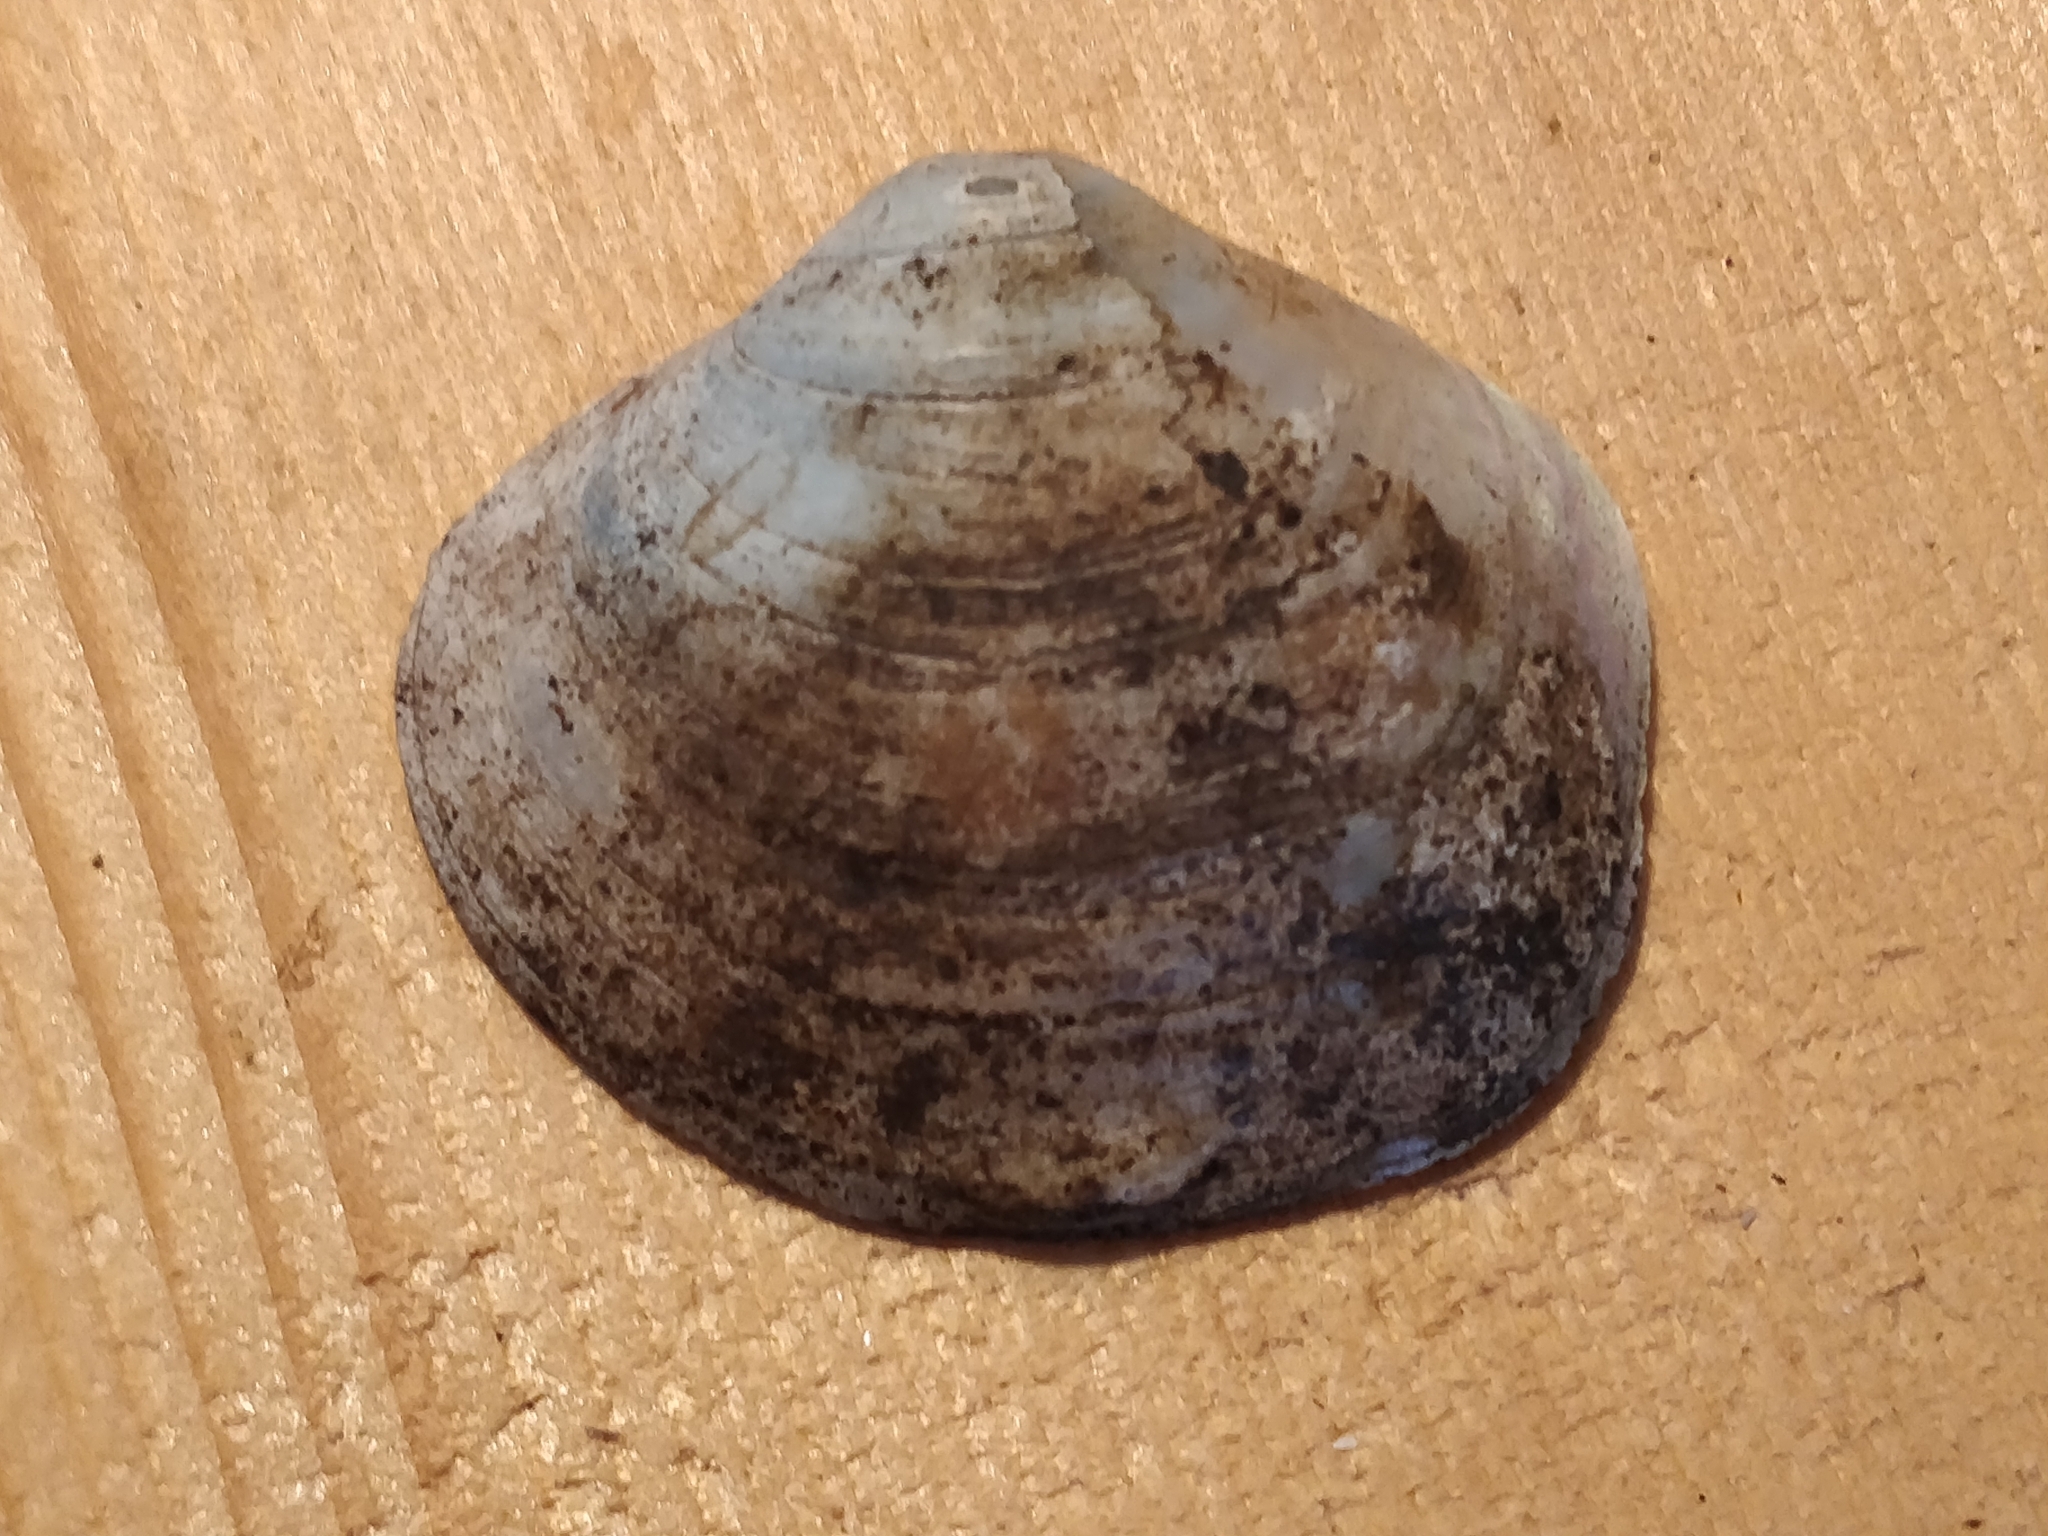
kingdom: Animalia
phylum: Mollusca
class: Bivalvia
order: Unionida
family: Unionidae
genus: Cyclonaias
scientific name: Cyclonaias pustulosa
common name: Pimpleback
